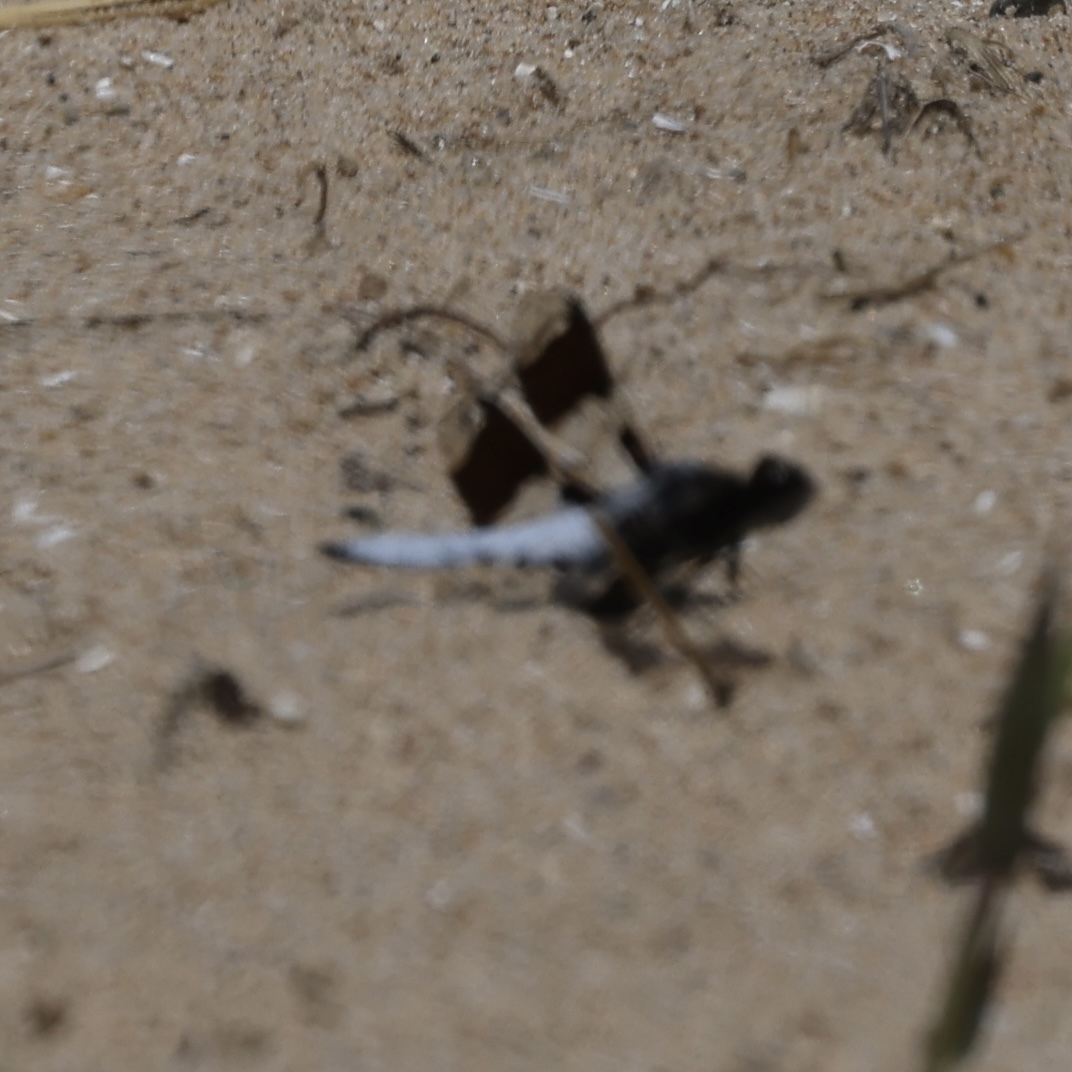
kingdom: Animalia
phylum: Arthropoda
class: Insecta
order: Odonata
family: Libellulidae
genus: Plathemis
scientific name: Plathemis lydia
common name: Common whitetail
